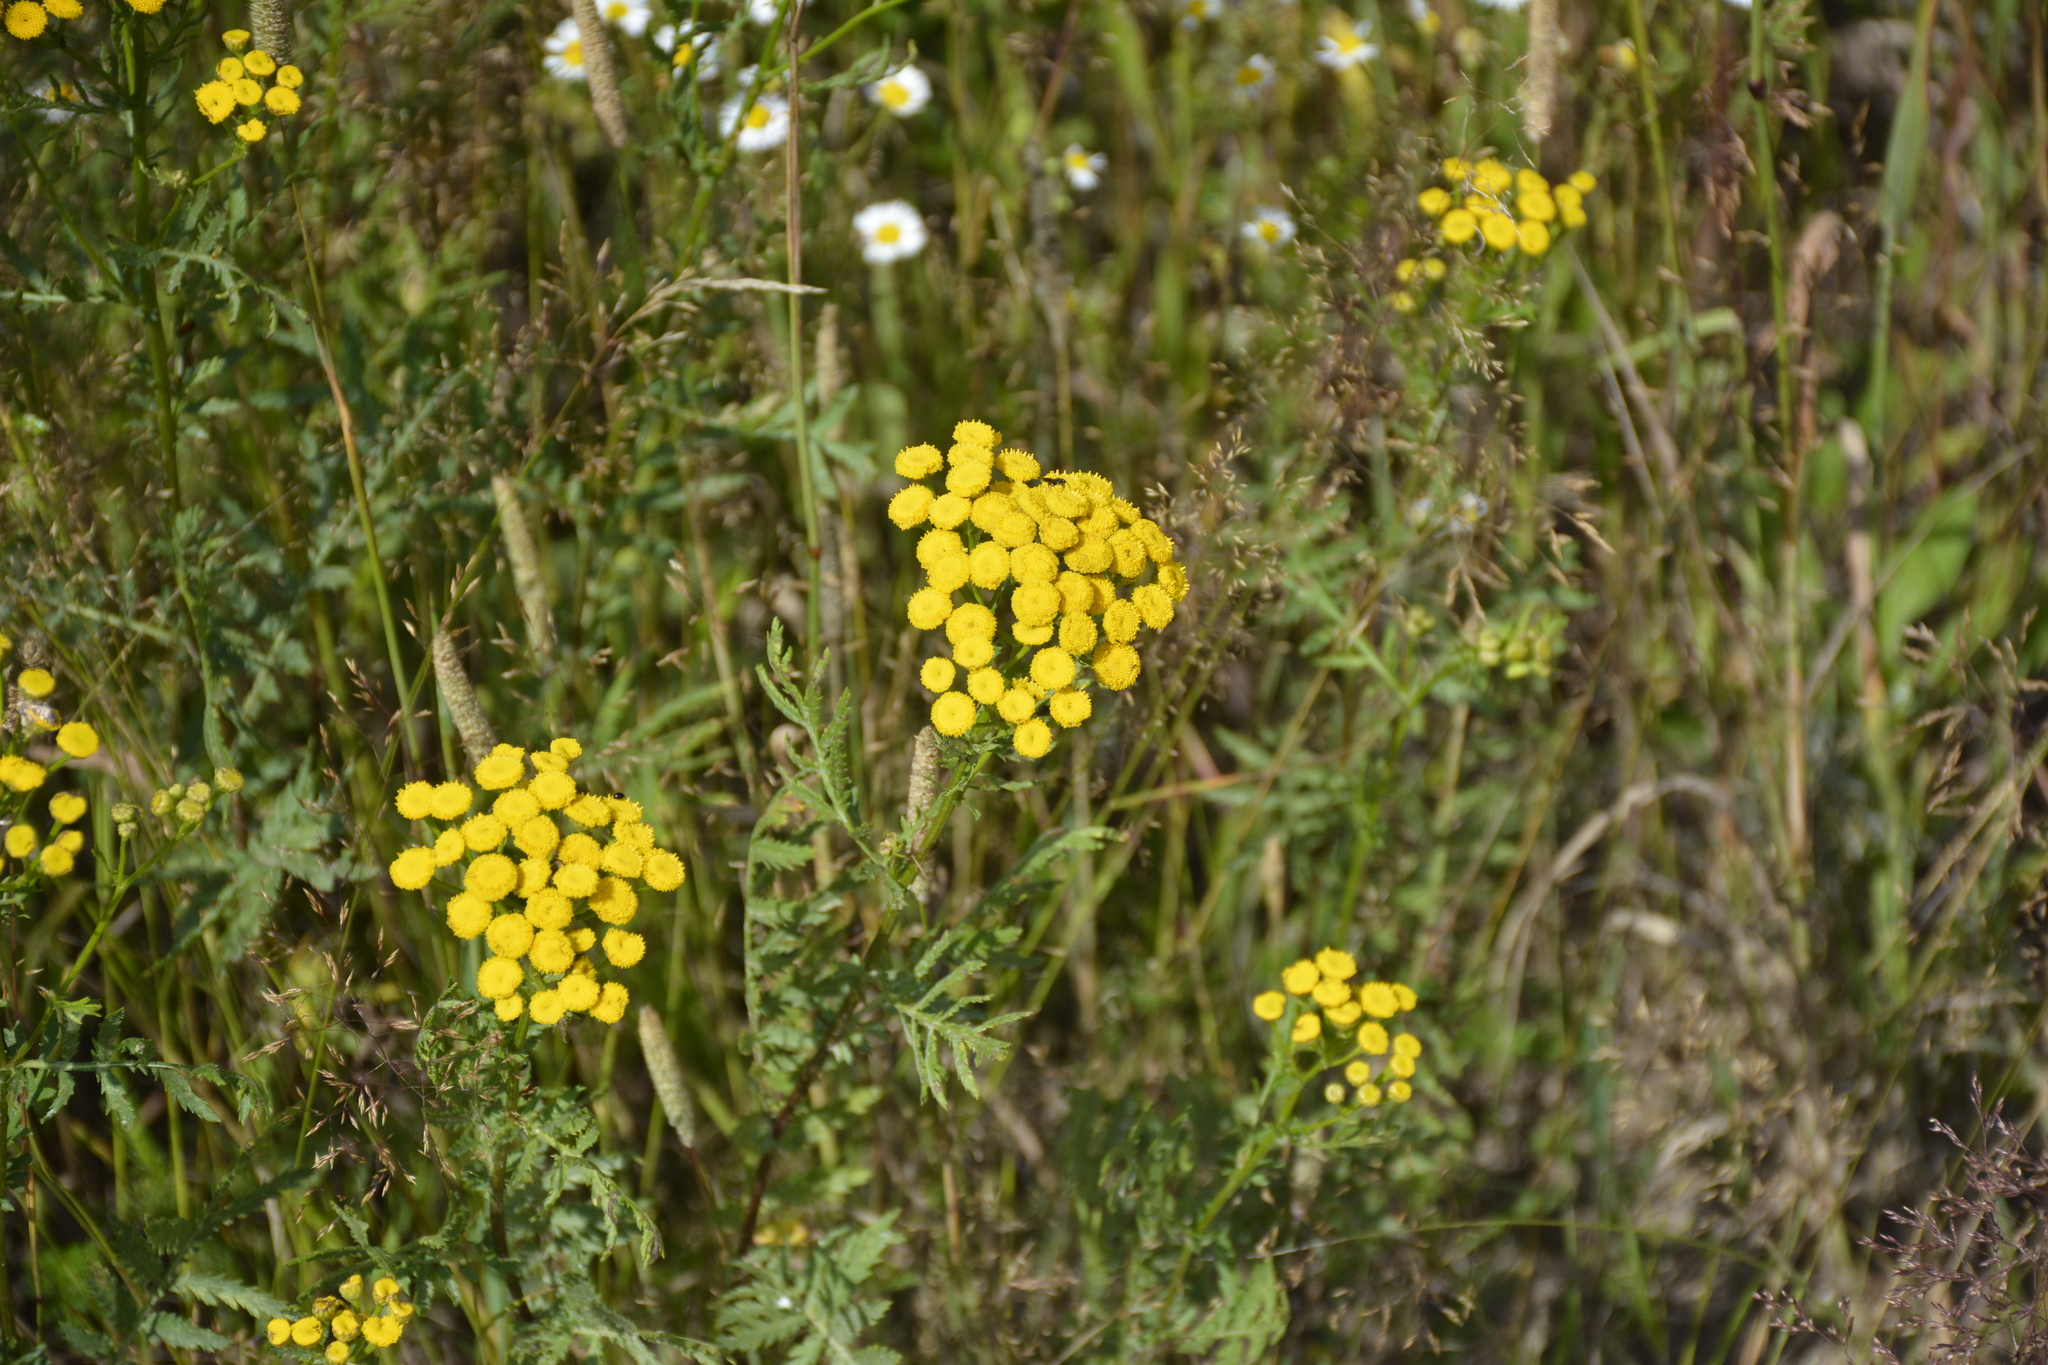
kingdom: Plantae
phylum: Tracheophyta
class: Magnoliopsida
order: Asterales
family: Asteraceae
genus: Tanacetum
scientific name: Tanacetum vulgare
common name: Common tansy
